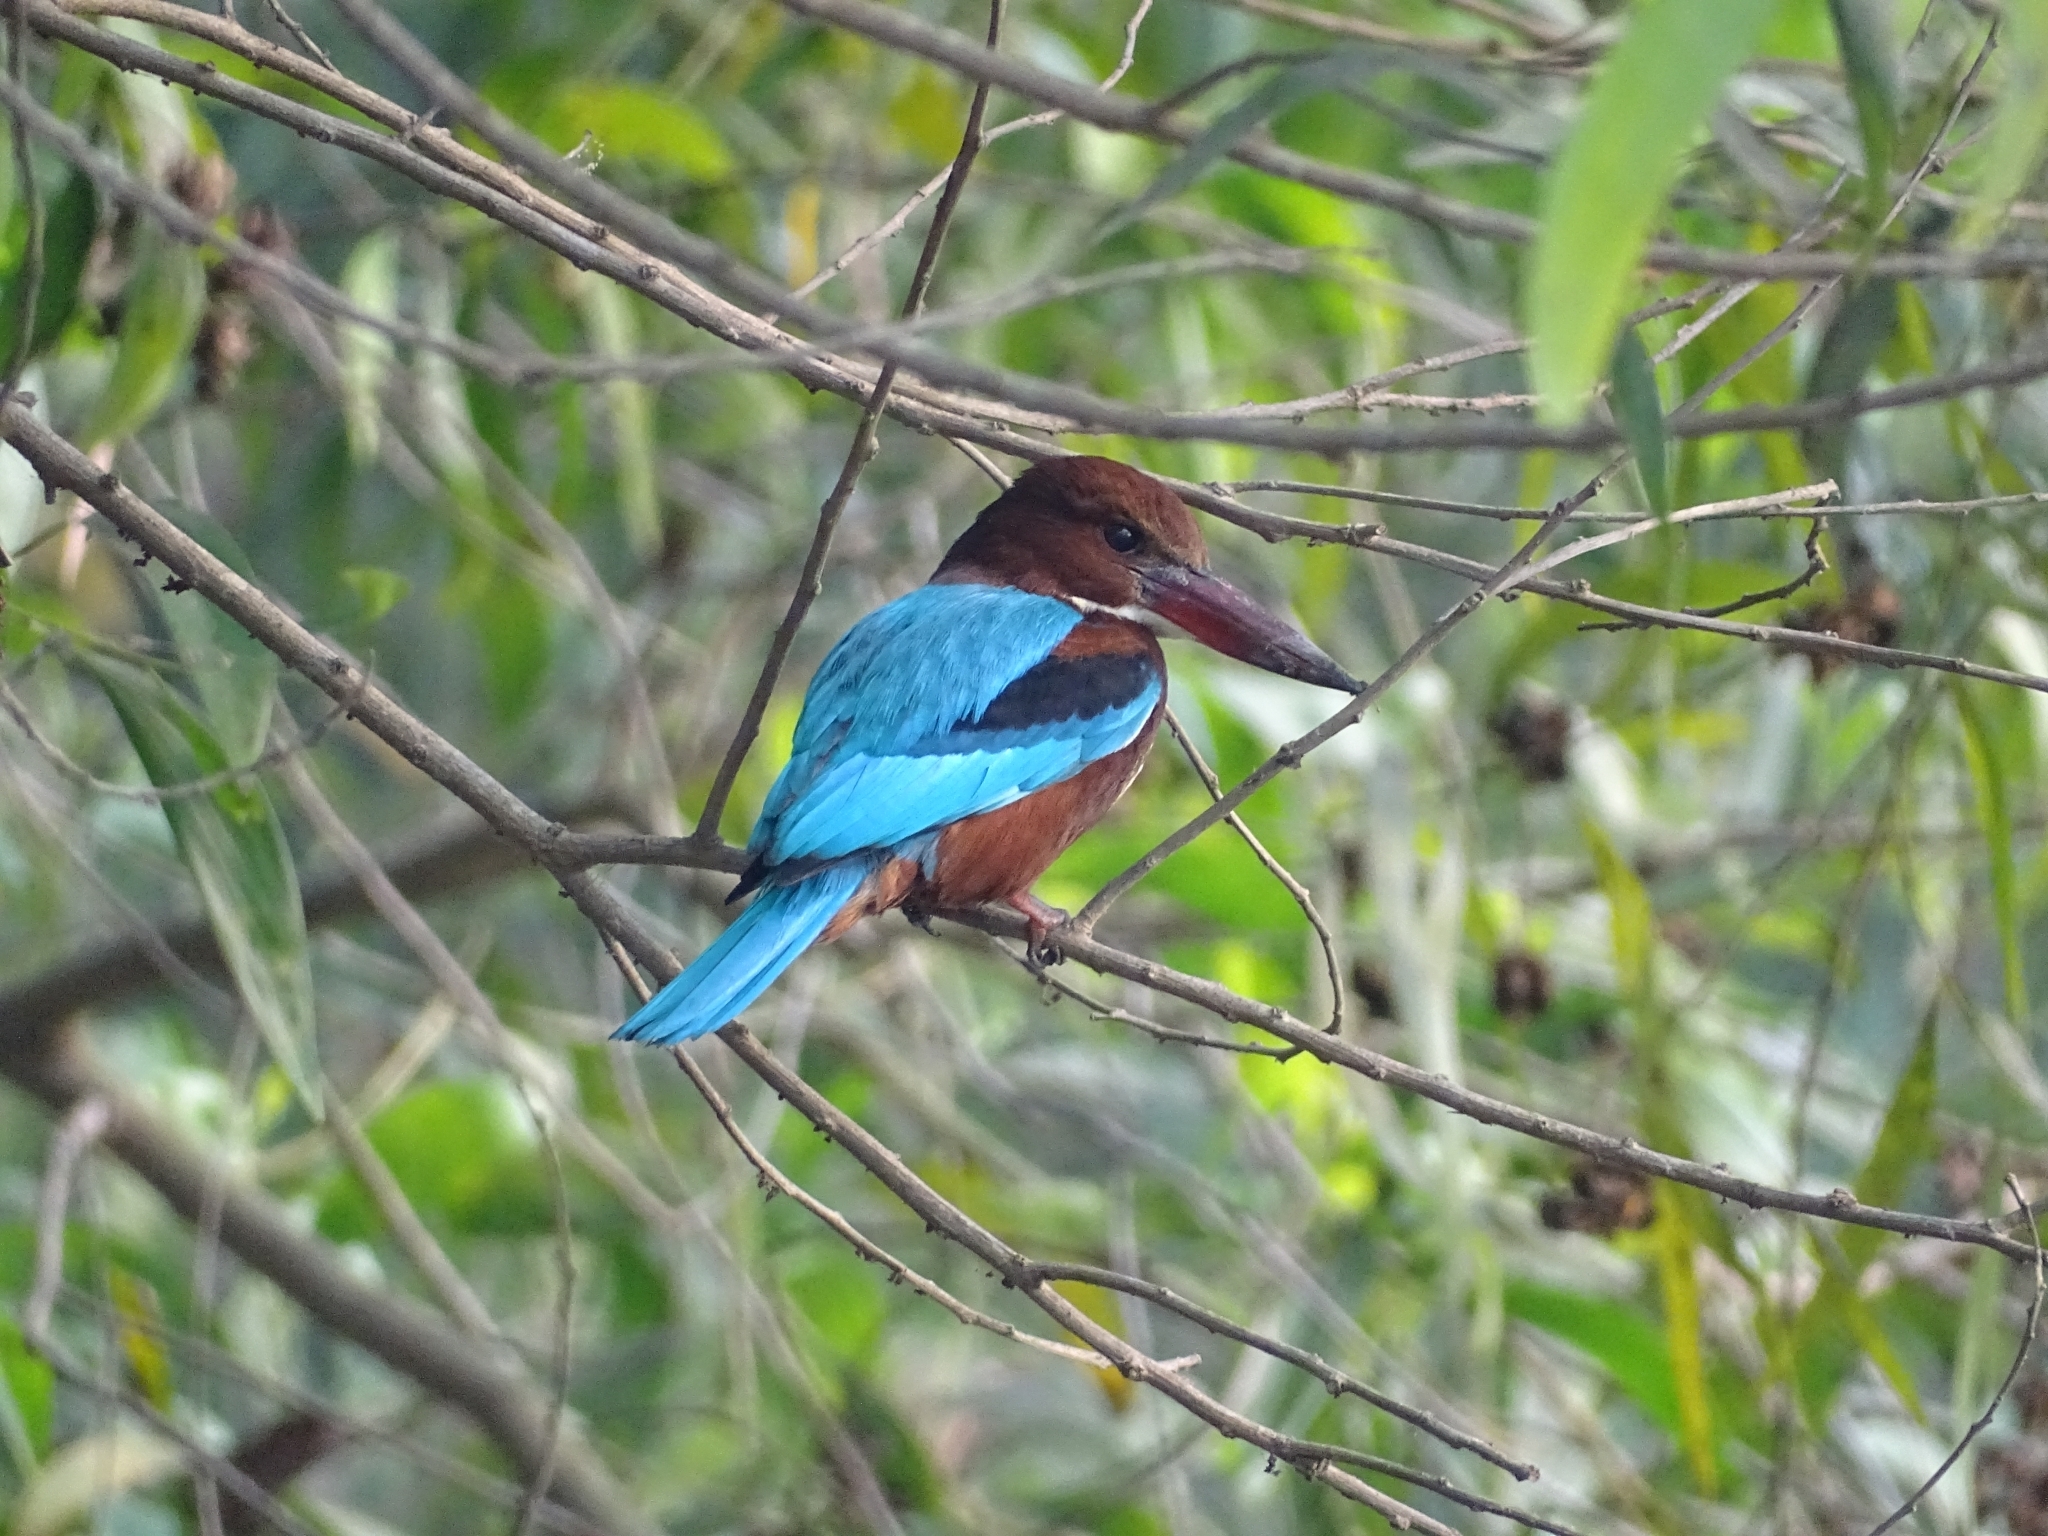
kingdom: Animalia
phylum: Chordata
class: Aves
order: Coraciiformes
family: Alcedinidae
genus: Halcyon
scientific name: Halcyon smyrnensis
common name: White-throated kingfisher
